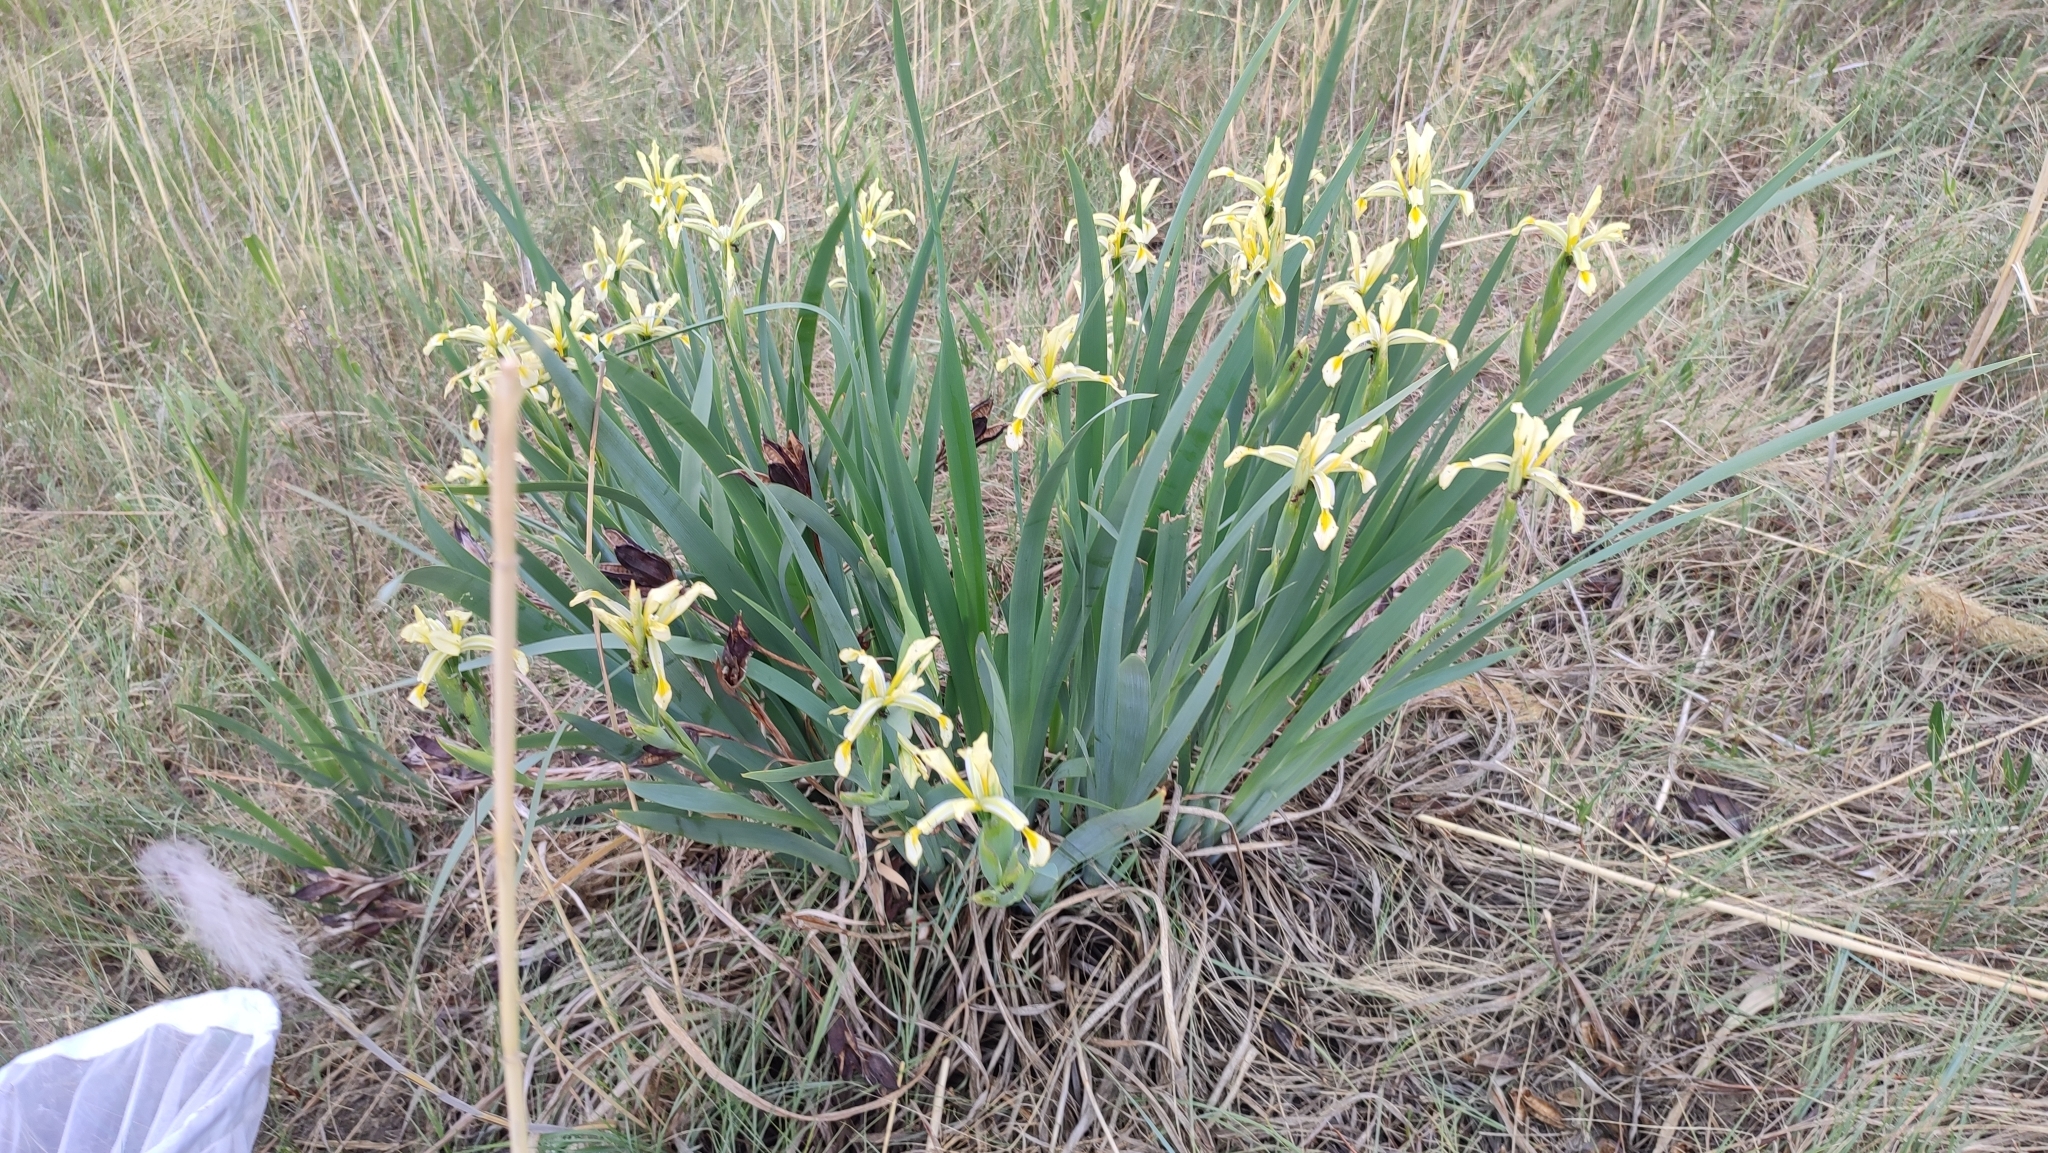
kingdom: Plantae
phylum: Tracheophyta
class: Liliopsida
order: Asparagales
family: Iridaceae
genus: Iris
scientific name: Iris halophila
